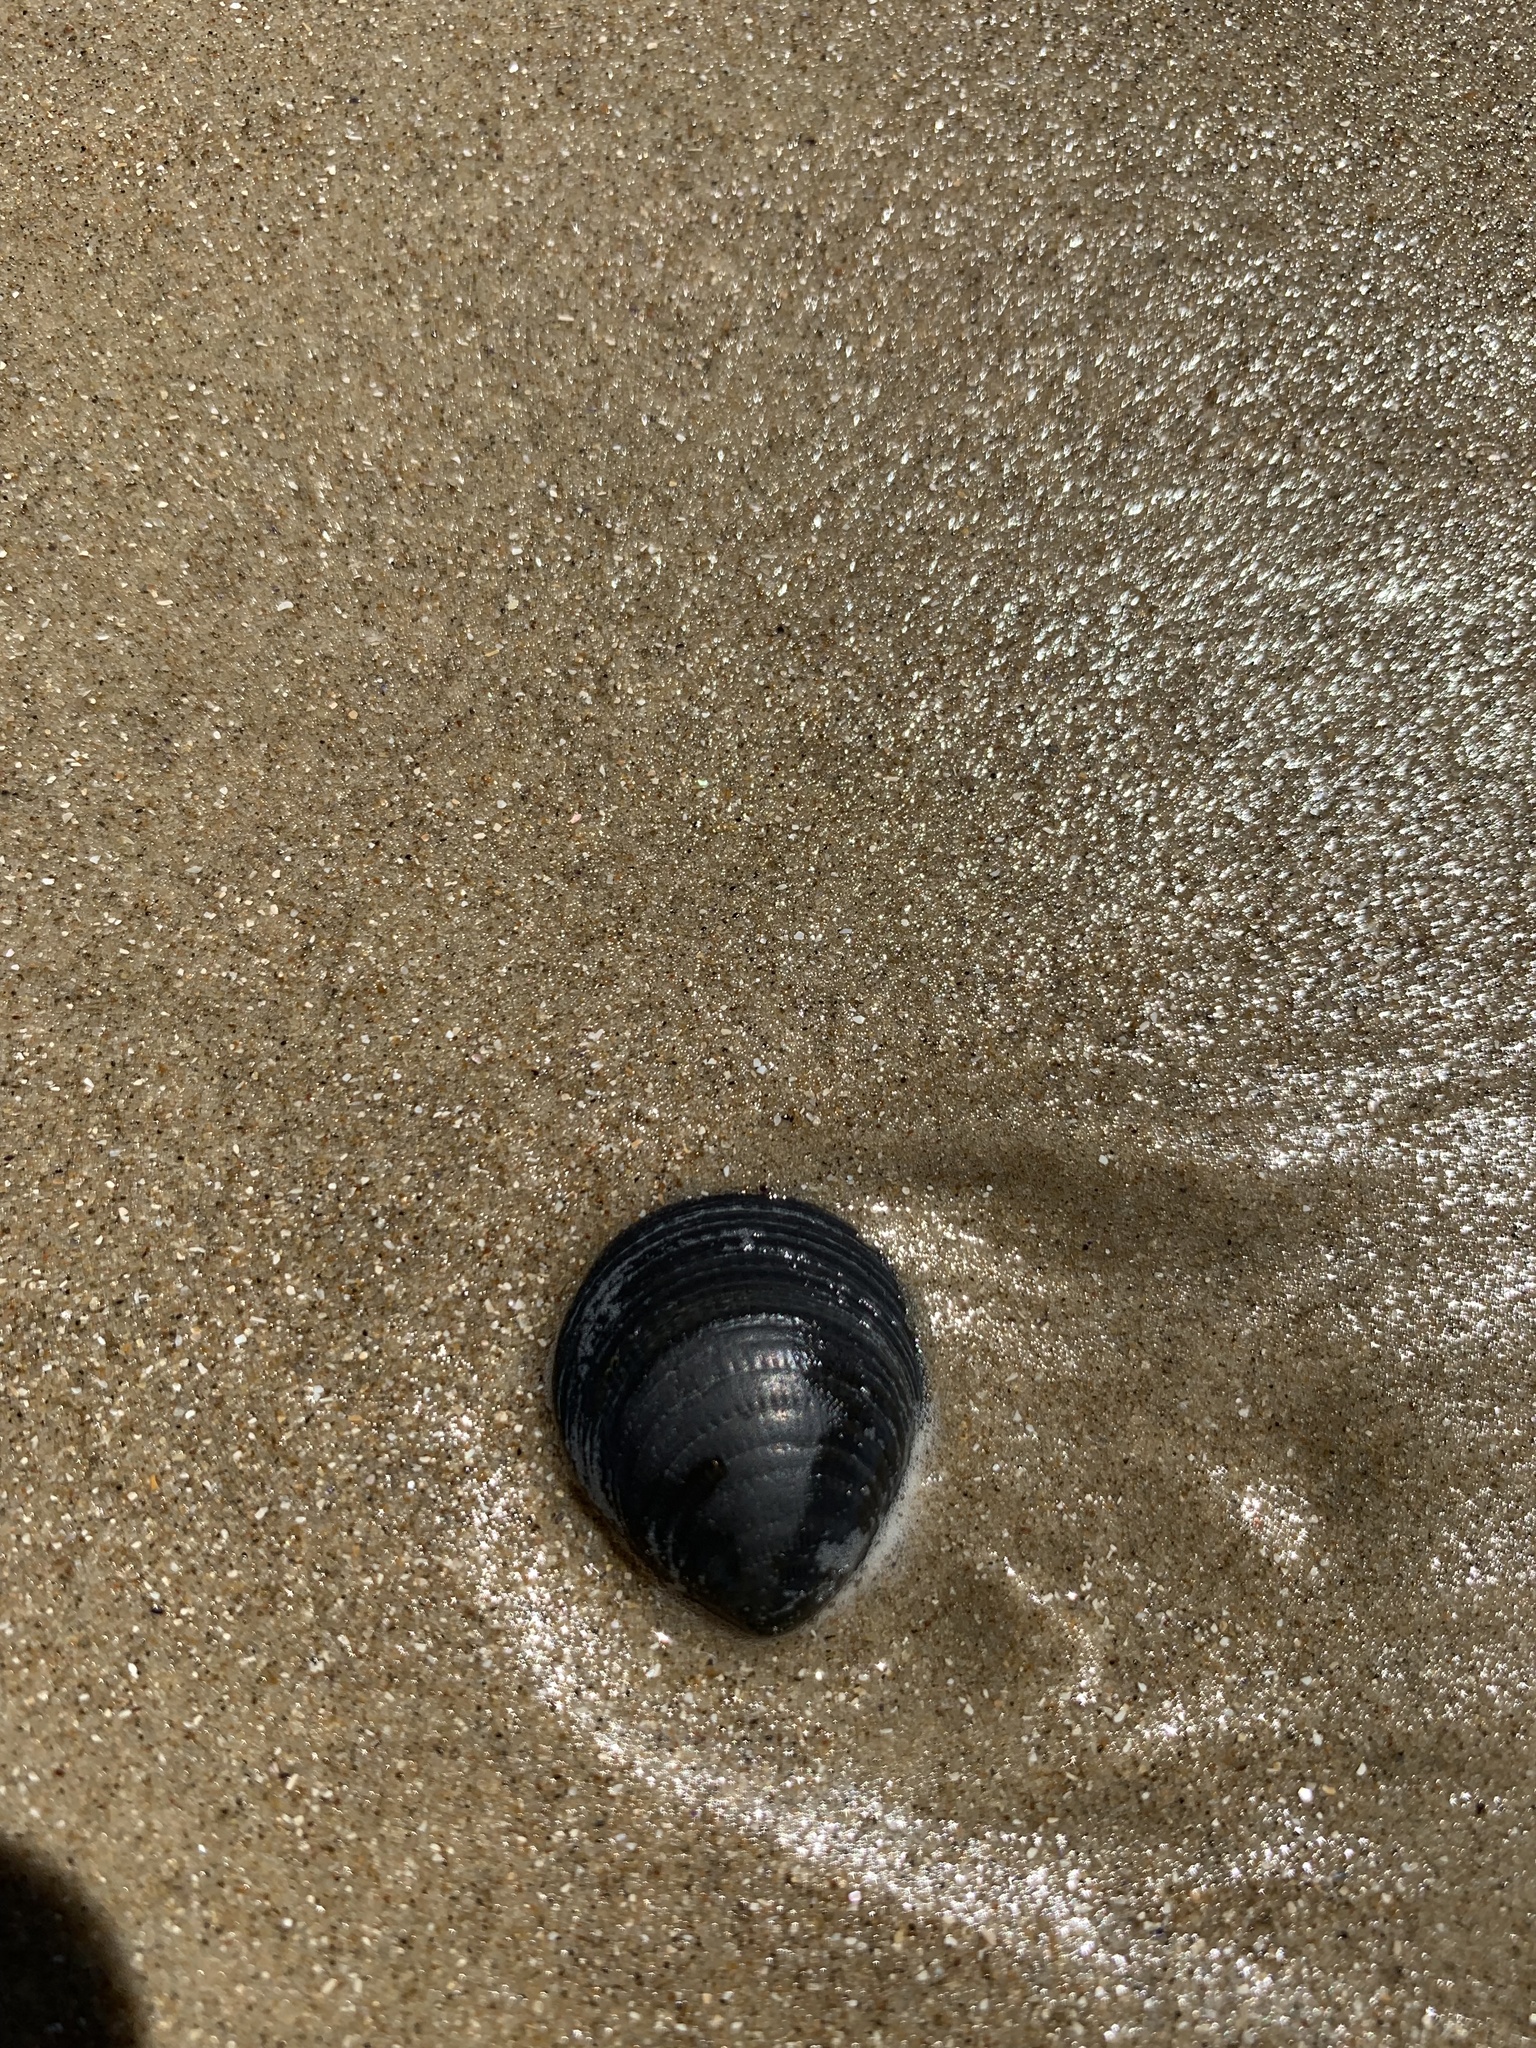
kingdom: Animalia
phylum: Mollusca
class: Bivalvia
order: Arcida
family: Glycymerididae
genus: Glycymeris
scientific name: Glycymeris longior
